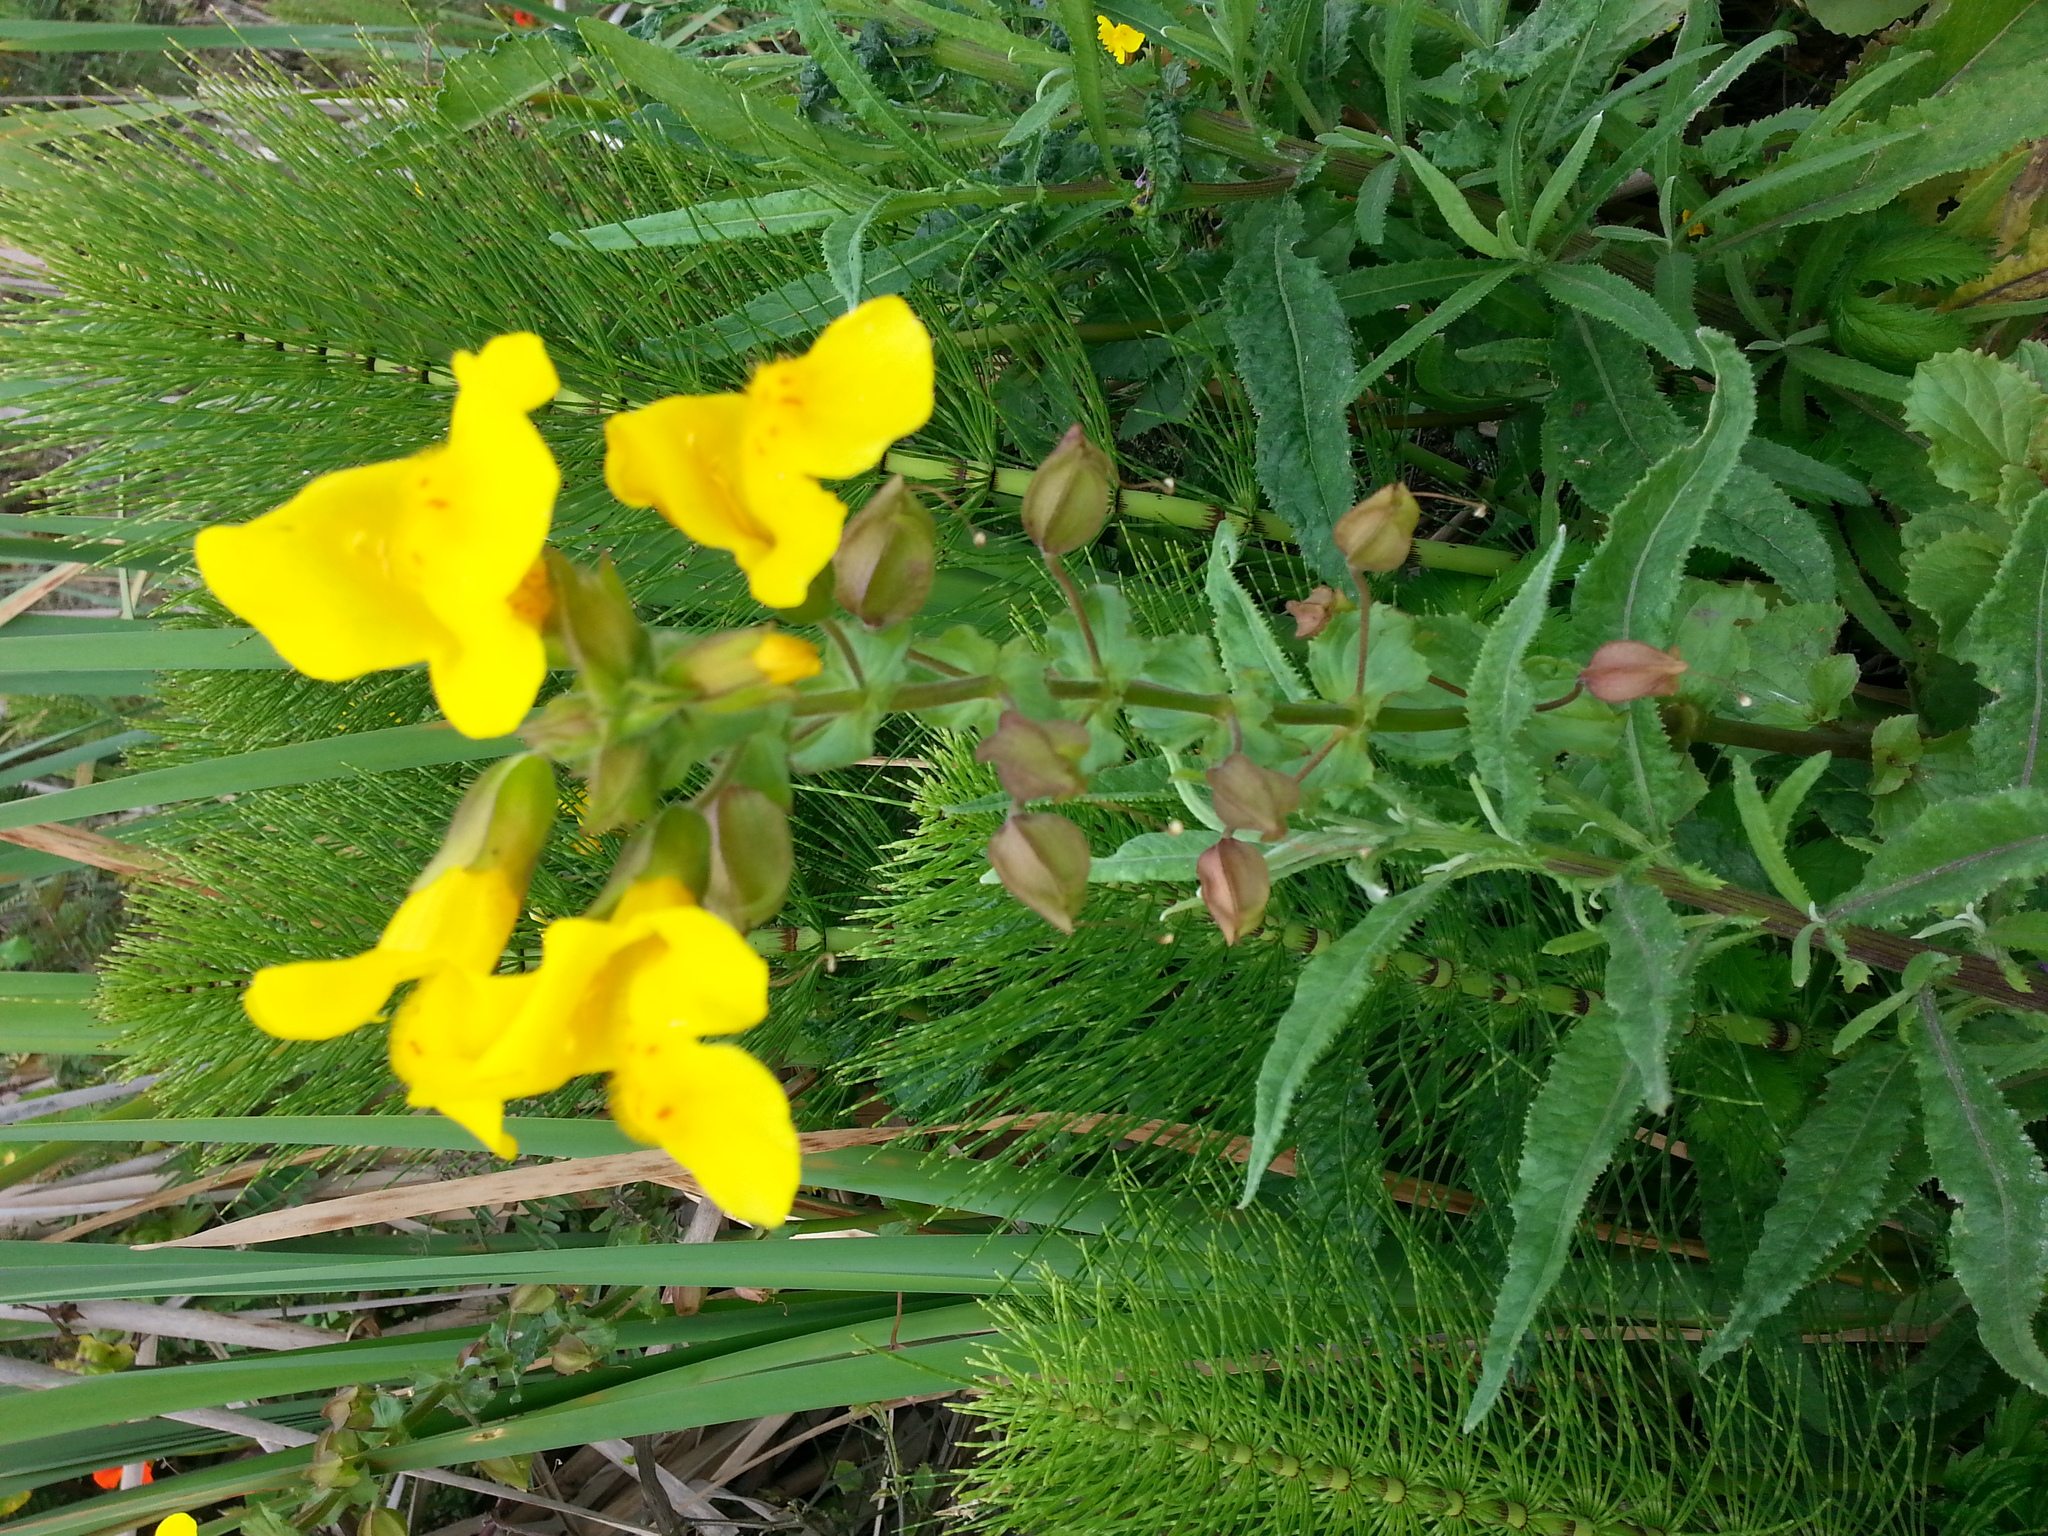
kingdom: Plantae
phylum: Tracheophyta
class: Magnoliopsida
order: Lamiales
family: Phrymaceae
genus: Erythranthe
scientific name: Erythranthe guttata
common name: Monkeyflower
